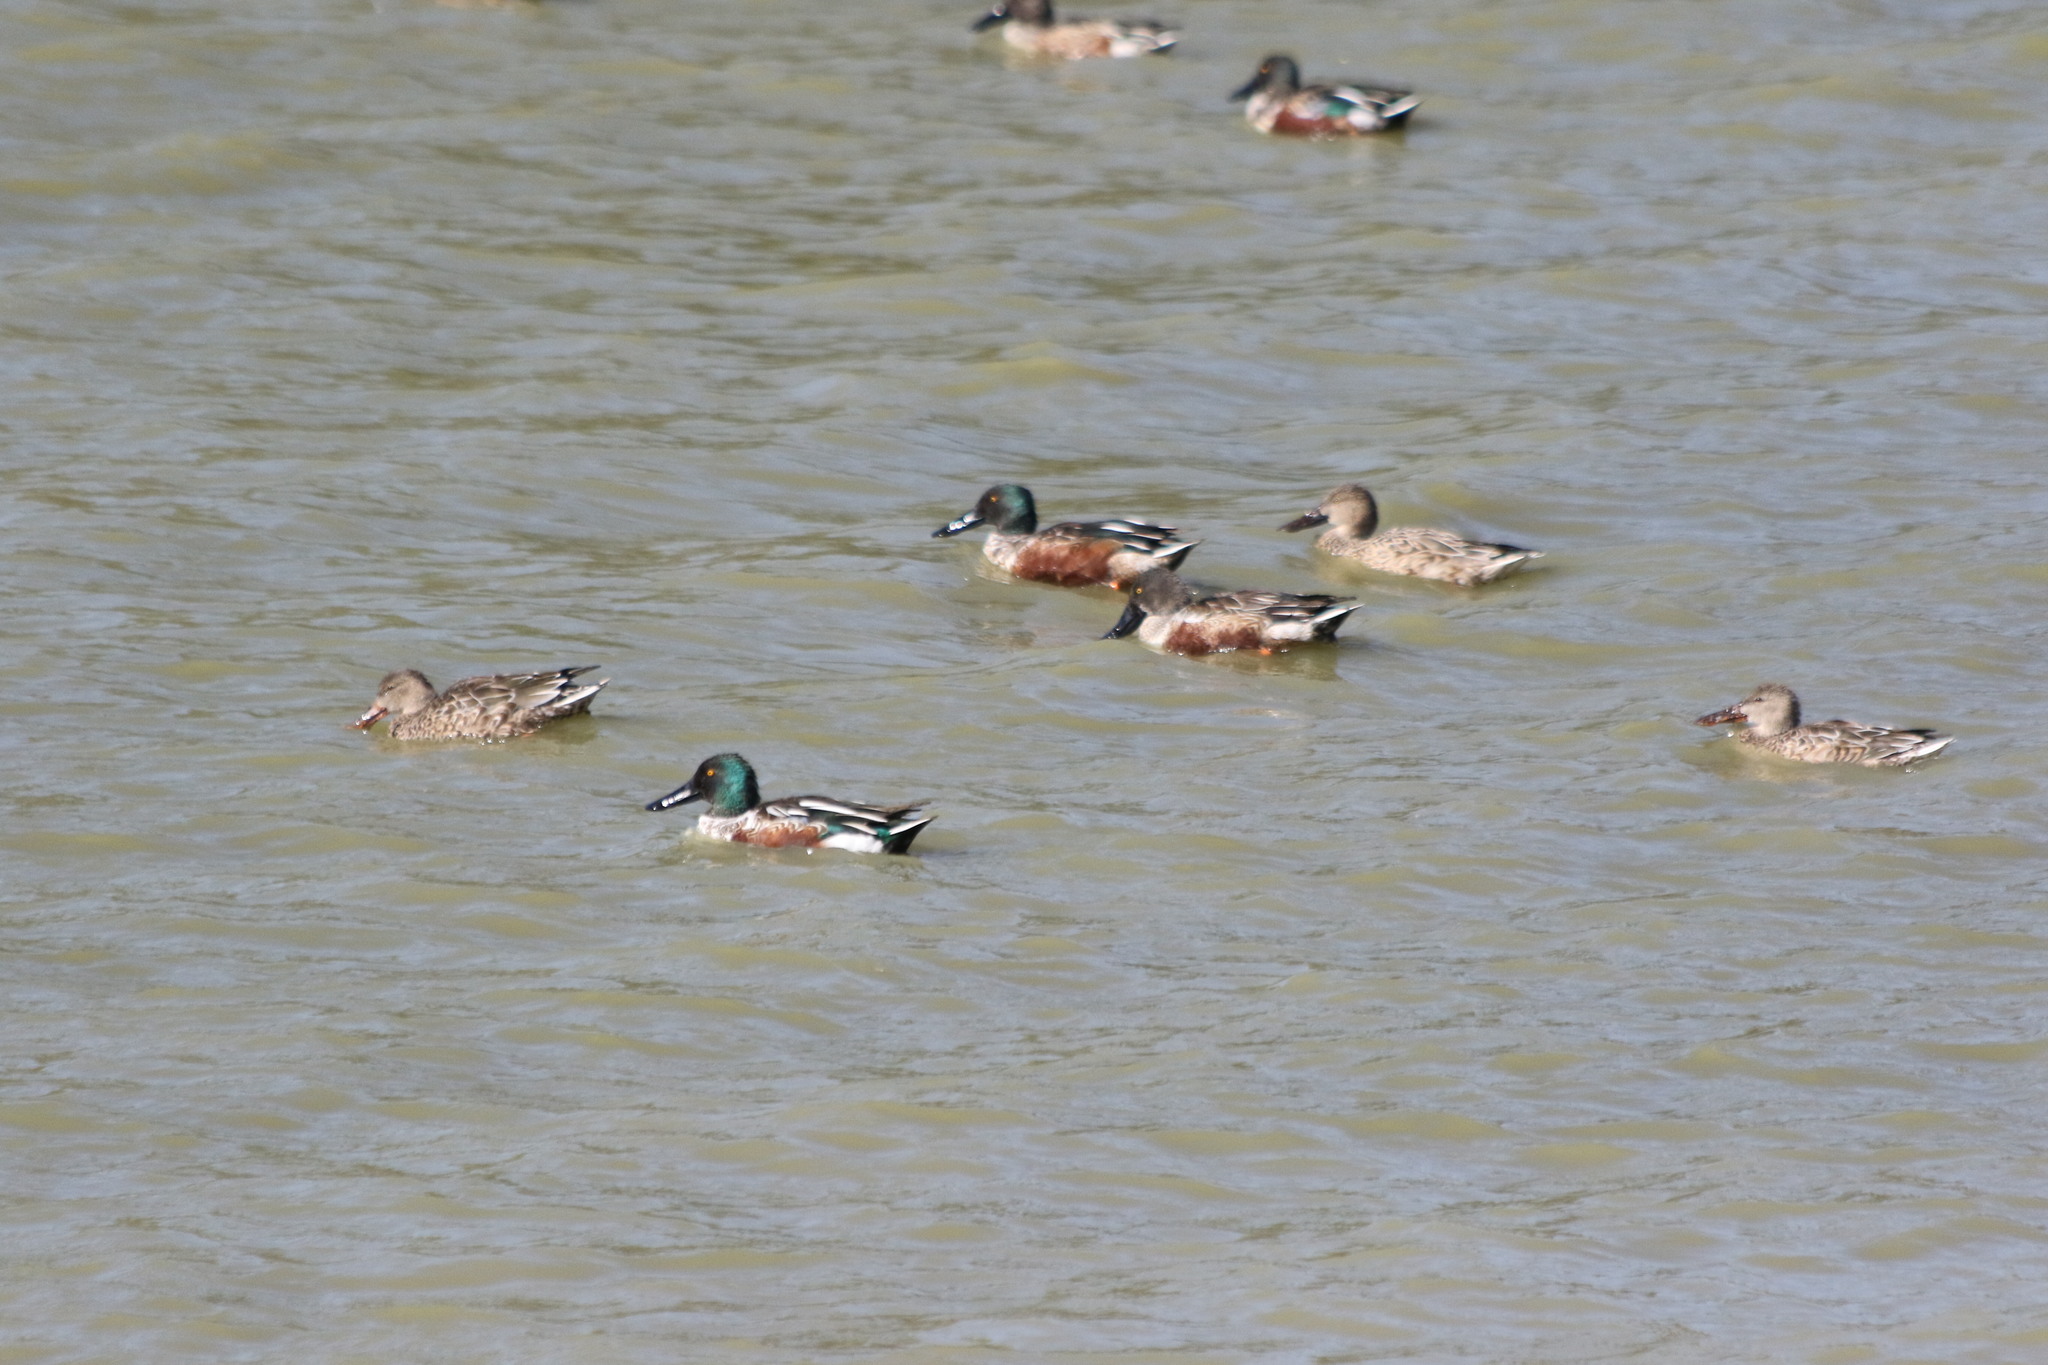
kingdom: Animalia
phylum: Chordata
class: Aves
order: Anseriformes
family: Anatidae
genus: Spatula
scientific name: Spatula clypeata
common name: Northern shoveler
